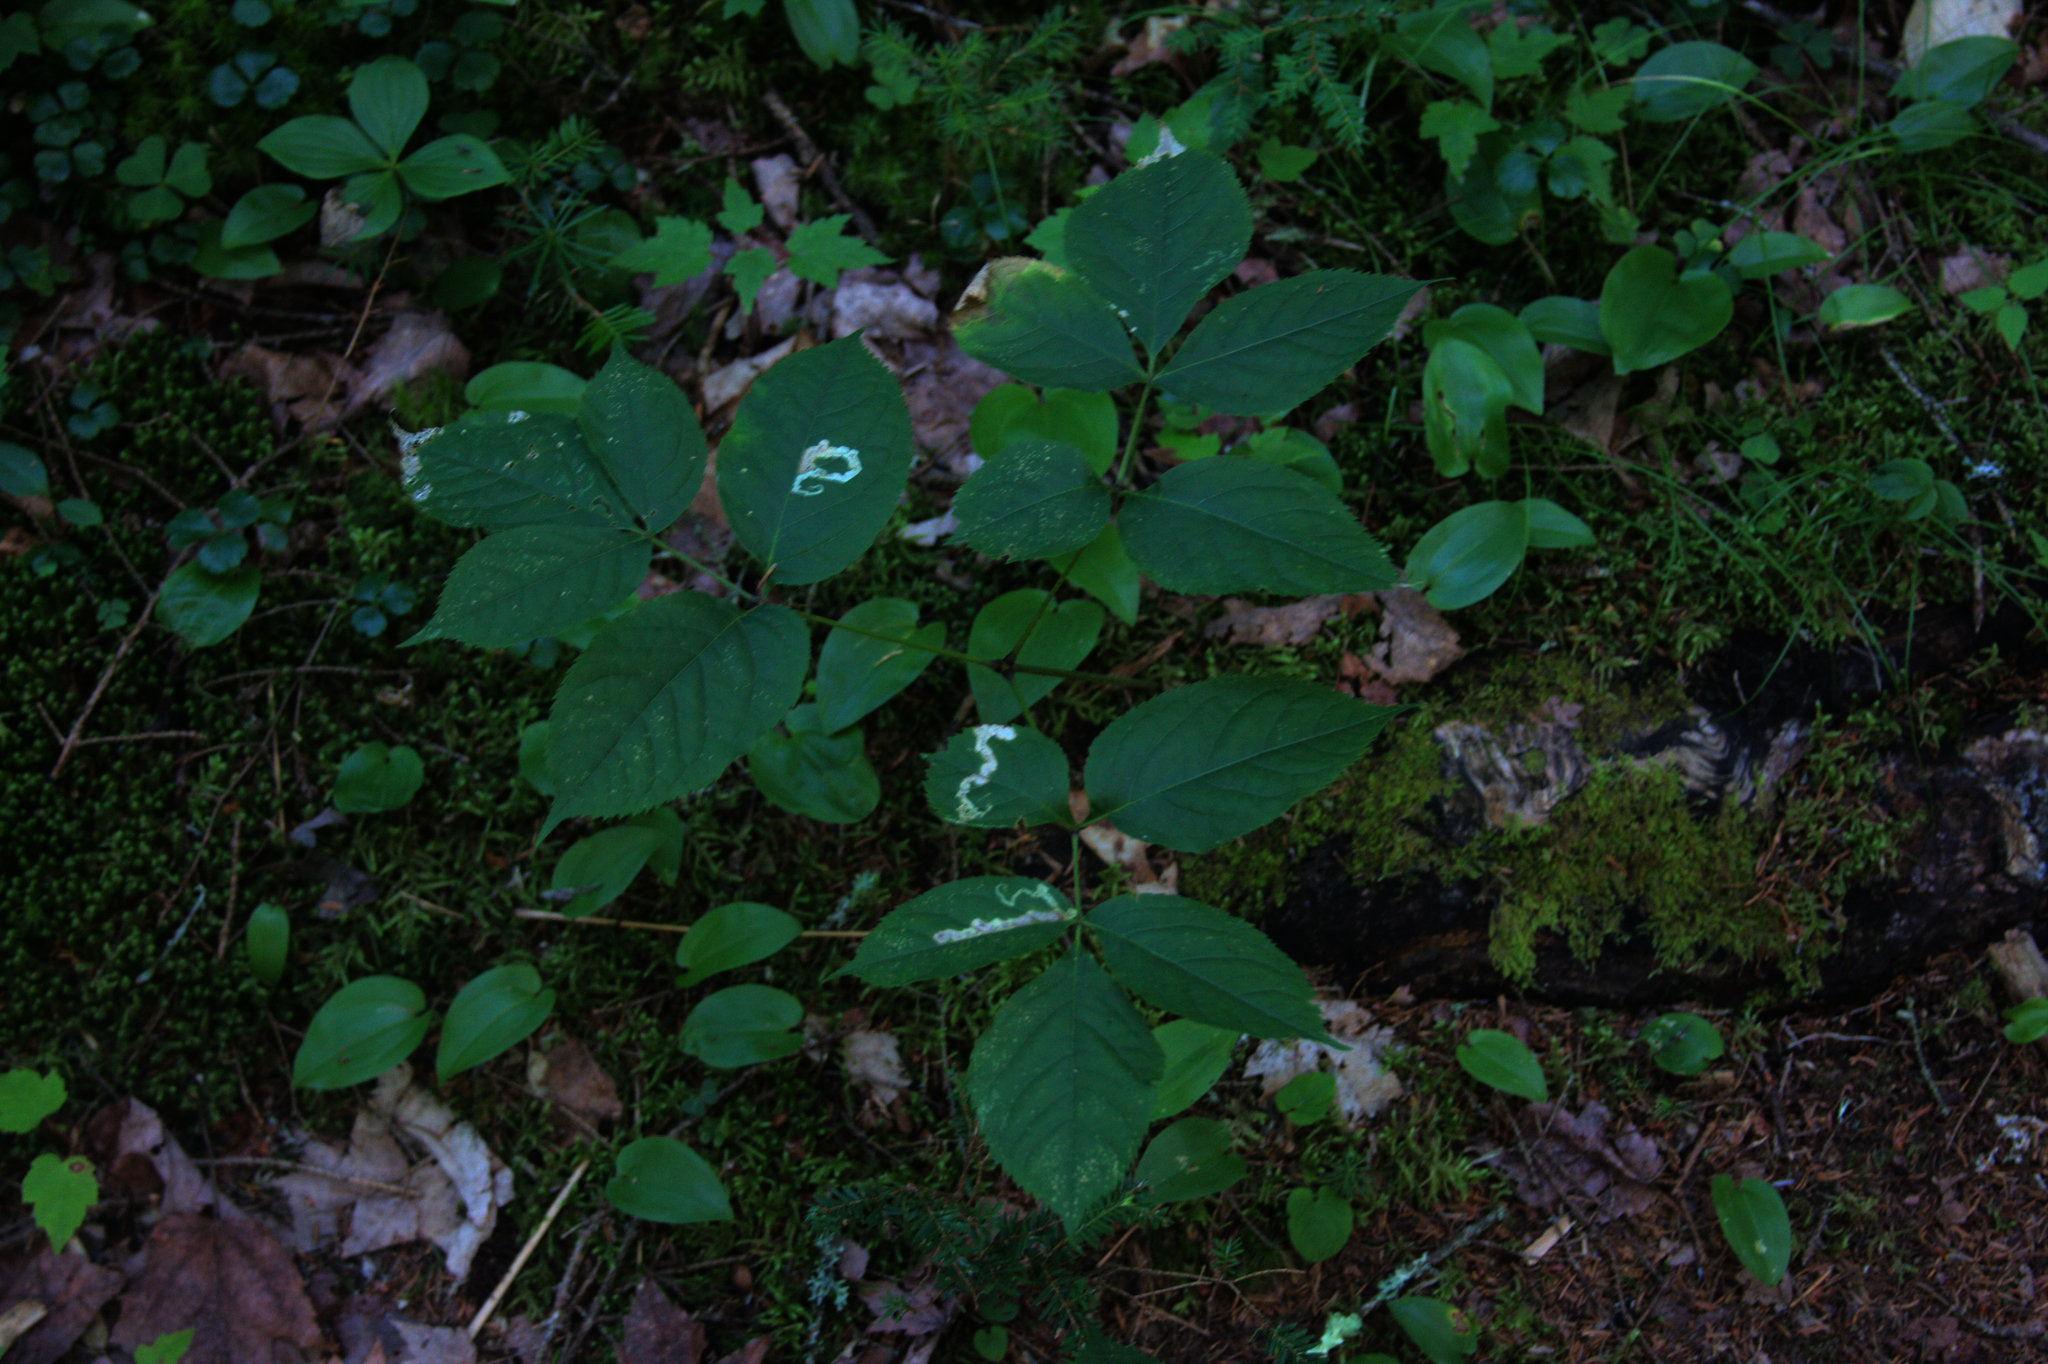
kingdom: Plantae
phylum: Tracheophyta
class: Magnoliopsida
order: Apiales
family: Araliaceae
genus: Aralia
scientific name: Aralia nudicaulis
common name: Wild sarsaparilla
